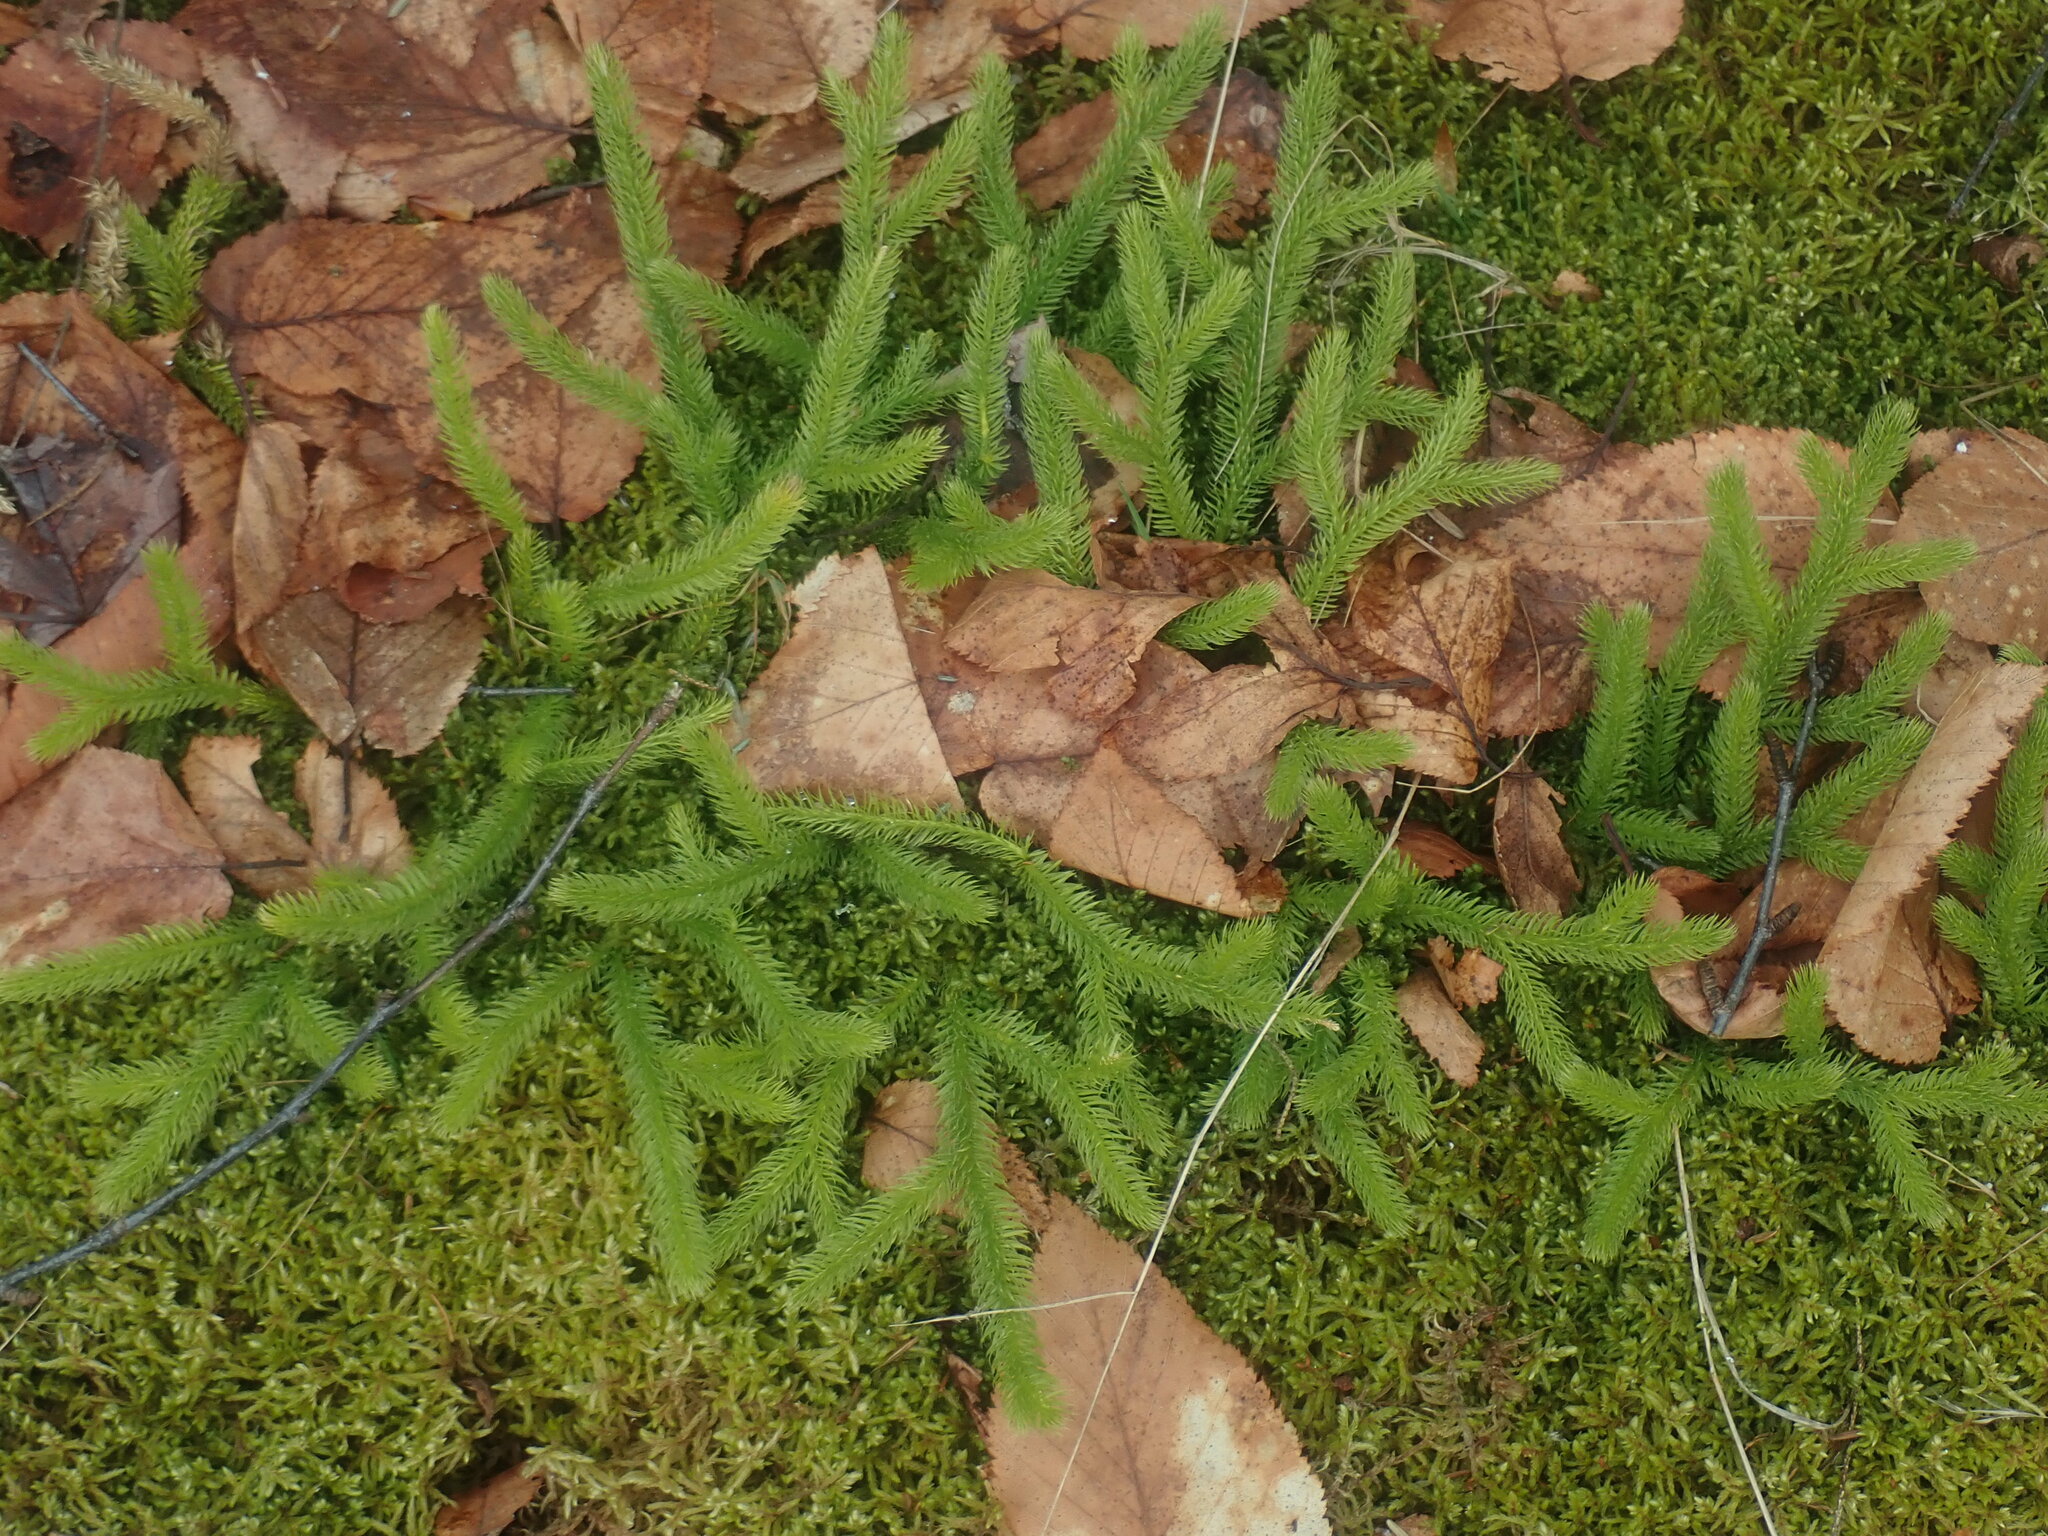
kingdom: Plantae
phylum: Tracheophyta
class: Lycopodiopsida
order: Lycopodiales
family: Lycopodiaceae
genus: Lycopodium
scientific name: Lycopodium clavatum
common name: Stag's-horn clubmoss
